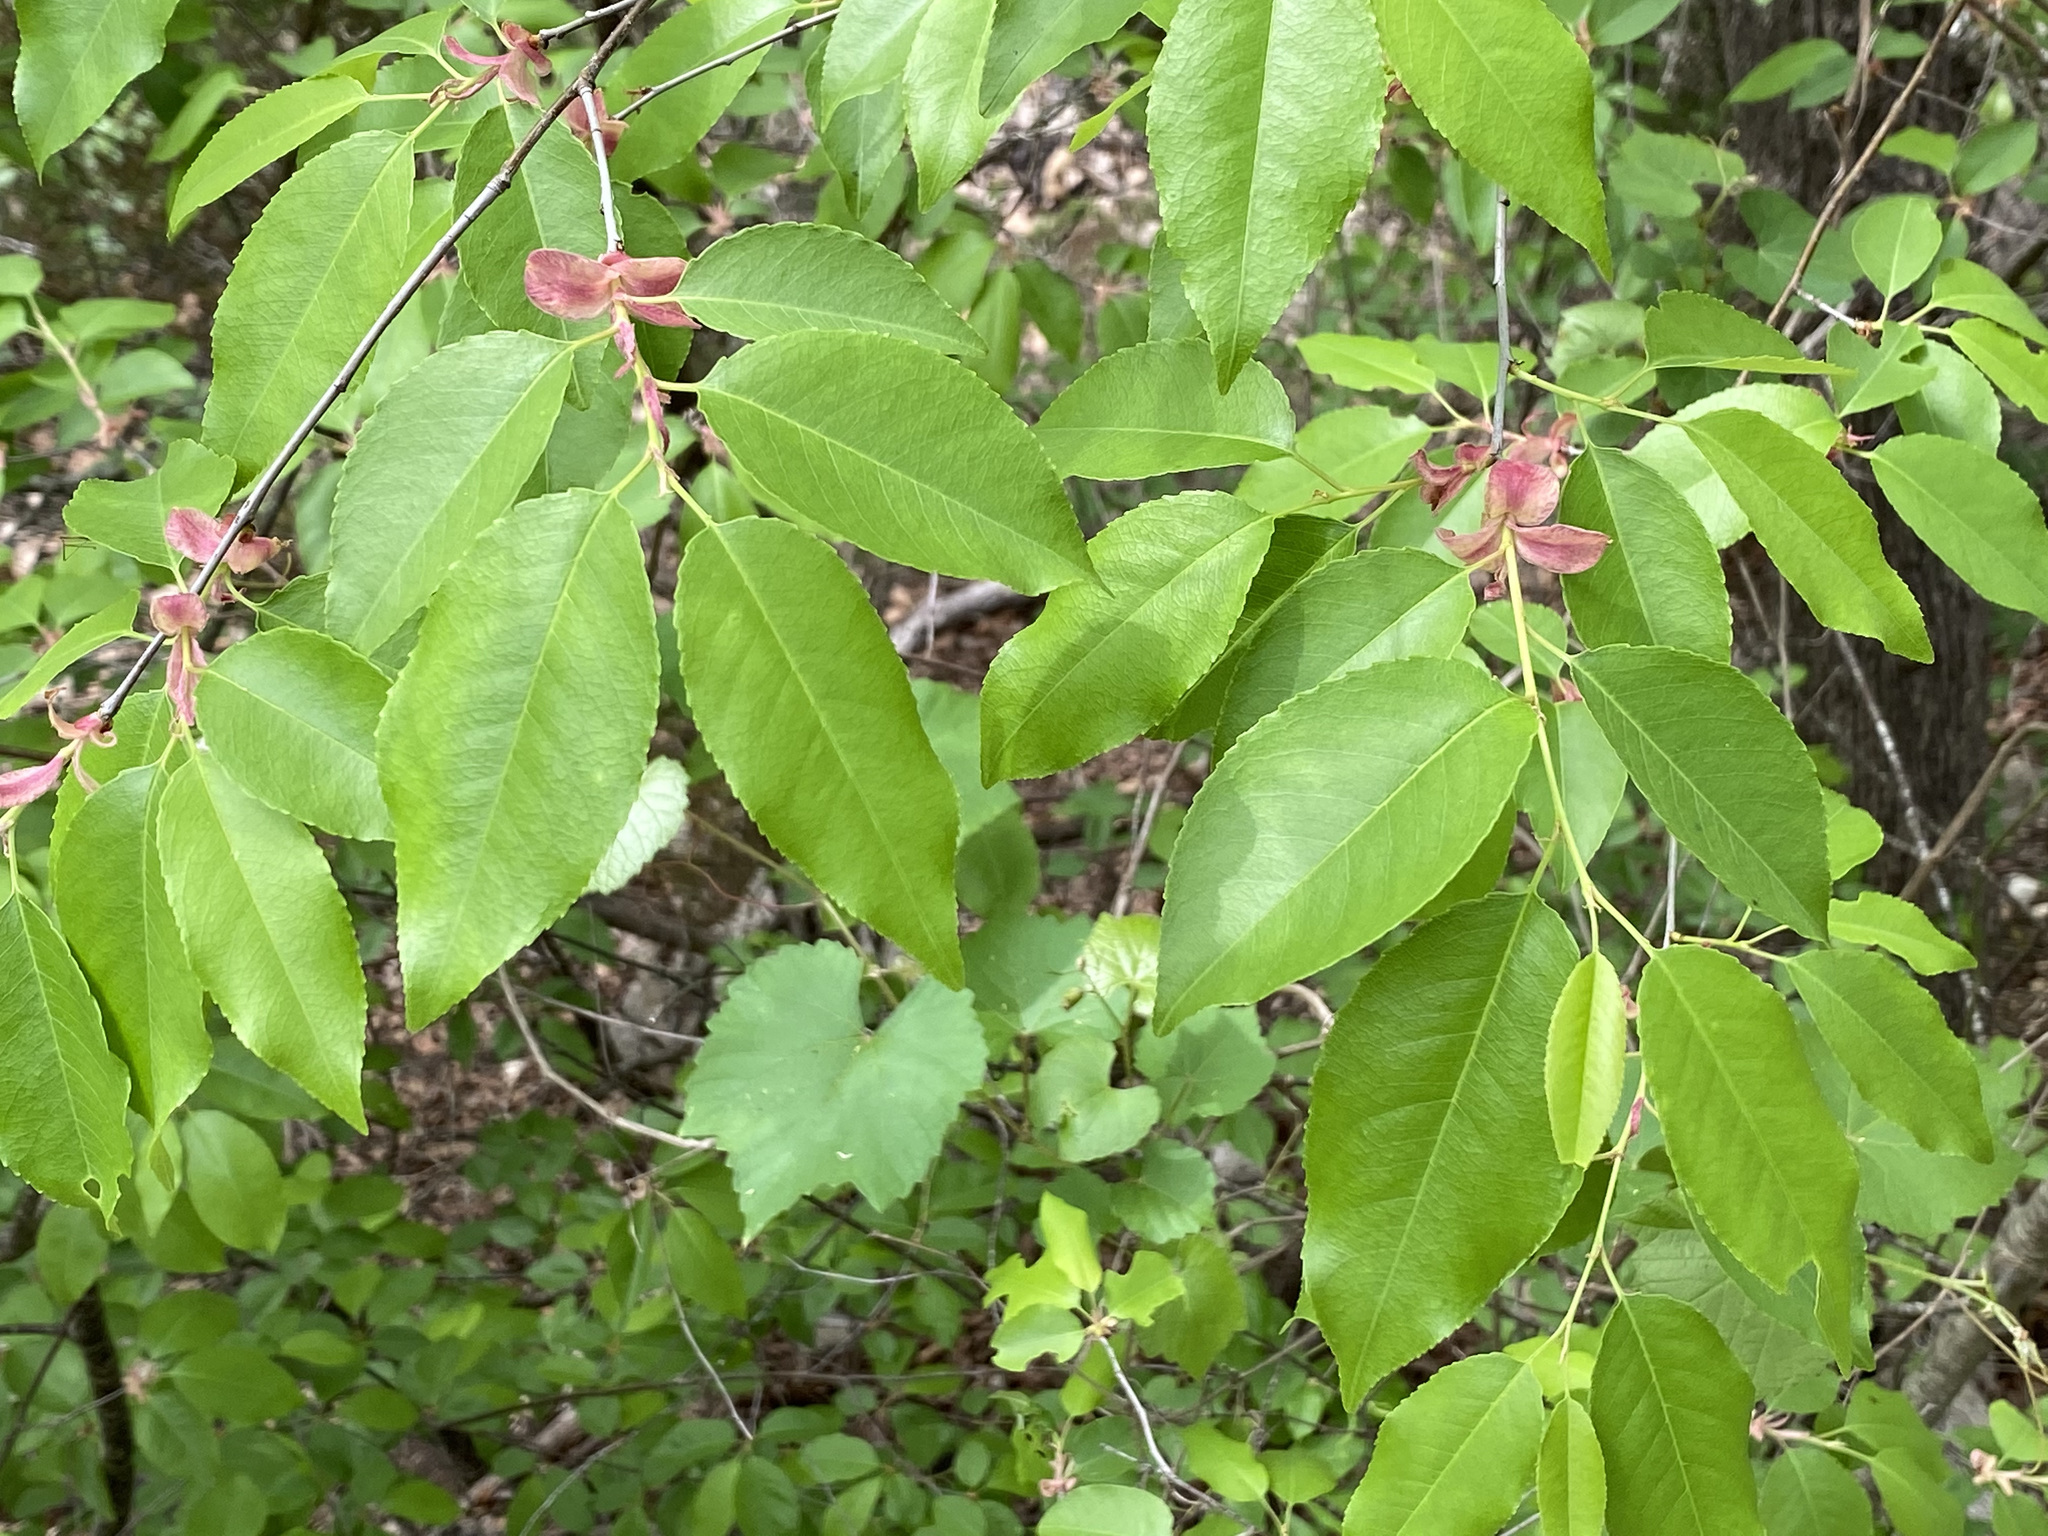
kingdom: Plantae
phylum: Tracheophyta
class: Magnoliopsida
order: Rosales
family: Rosaceae
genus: Prunus
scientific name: Prunus serotina
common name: Black cherry
